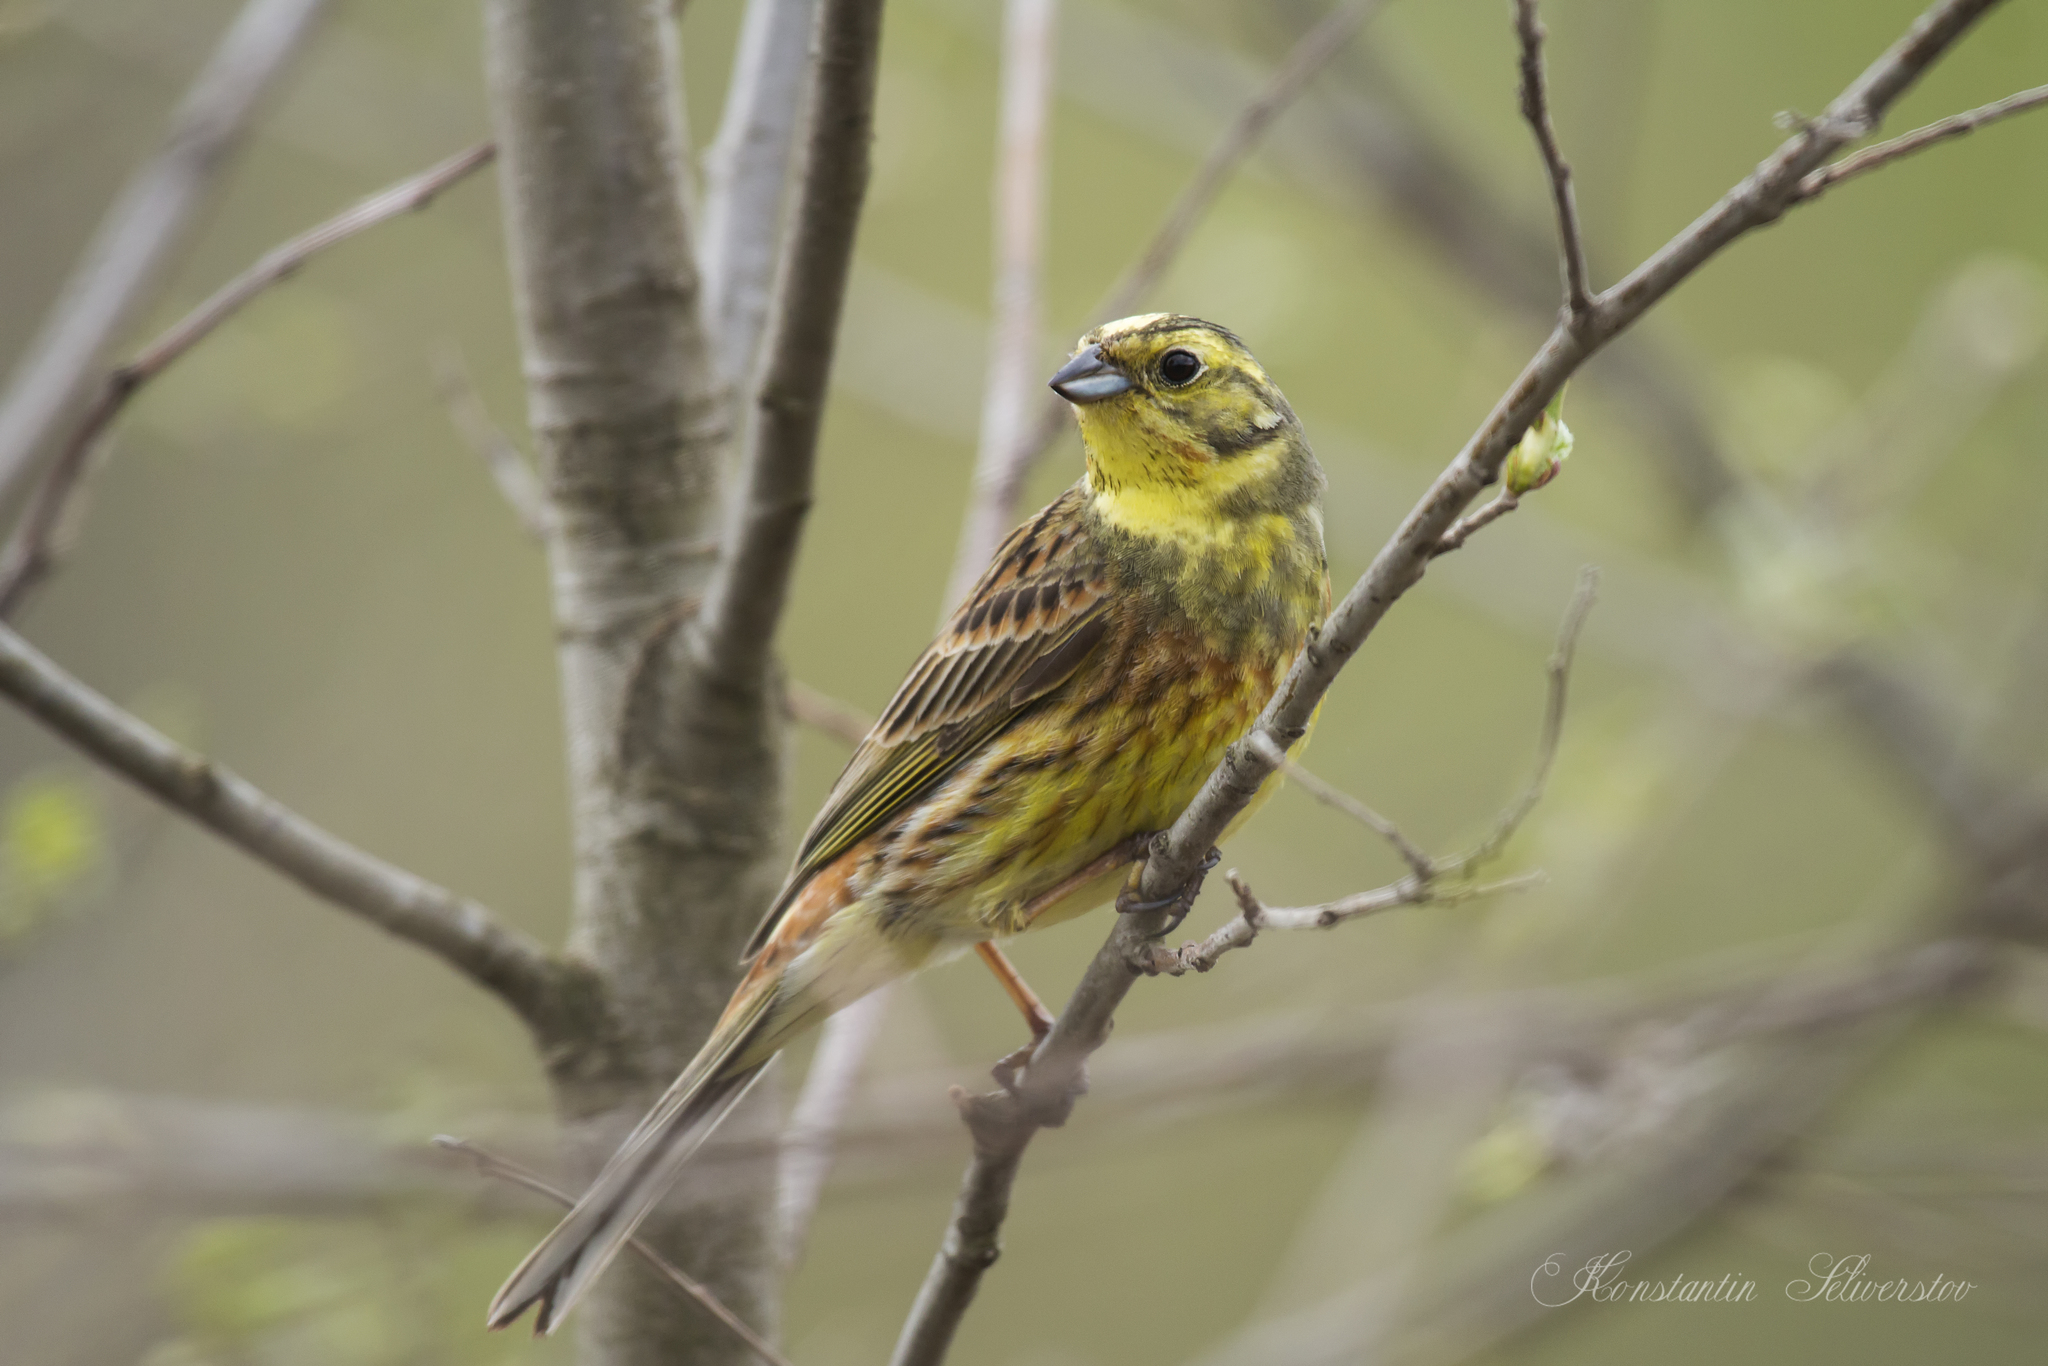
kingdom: Animalia
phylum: Chordata
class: Aves
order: Passeriformes
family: Emberizidae
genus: Emberiza
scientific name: Emberiza citrinella
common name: Yellowhammer
